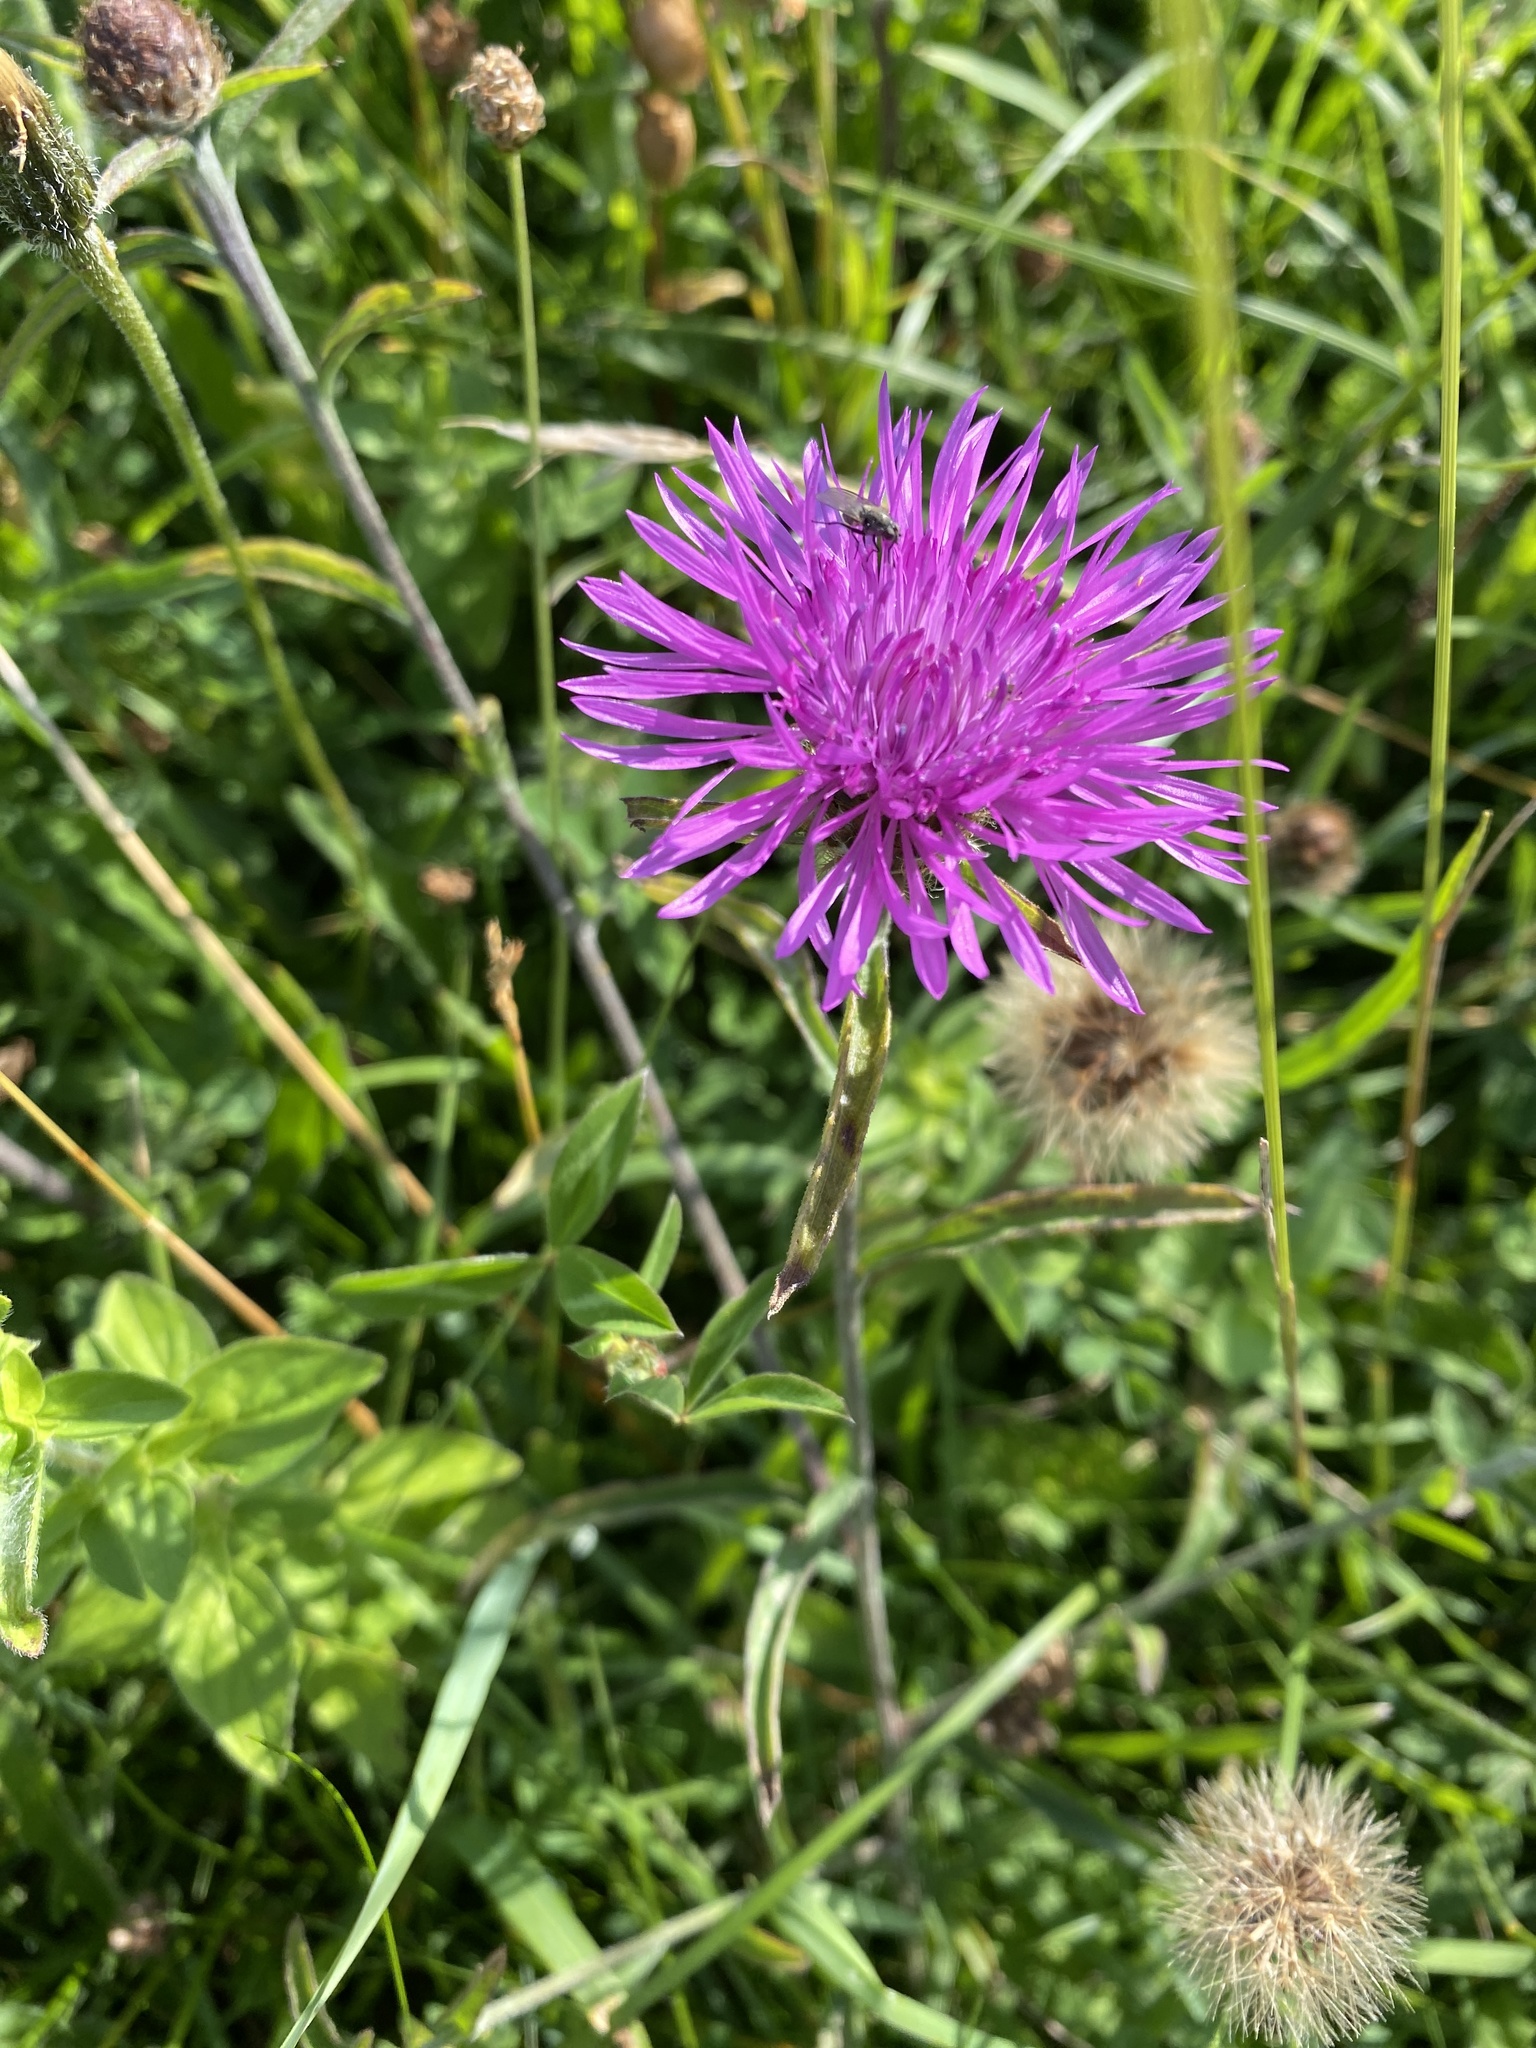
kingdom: Plantae
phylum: Tracheophyta
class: Magnoliopsida
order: Asterales
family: Asteraceae
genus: Centaurea
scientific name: Centaurea nigra
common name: Lesser knapweed
